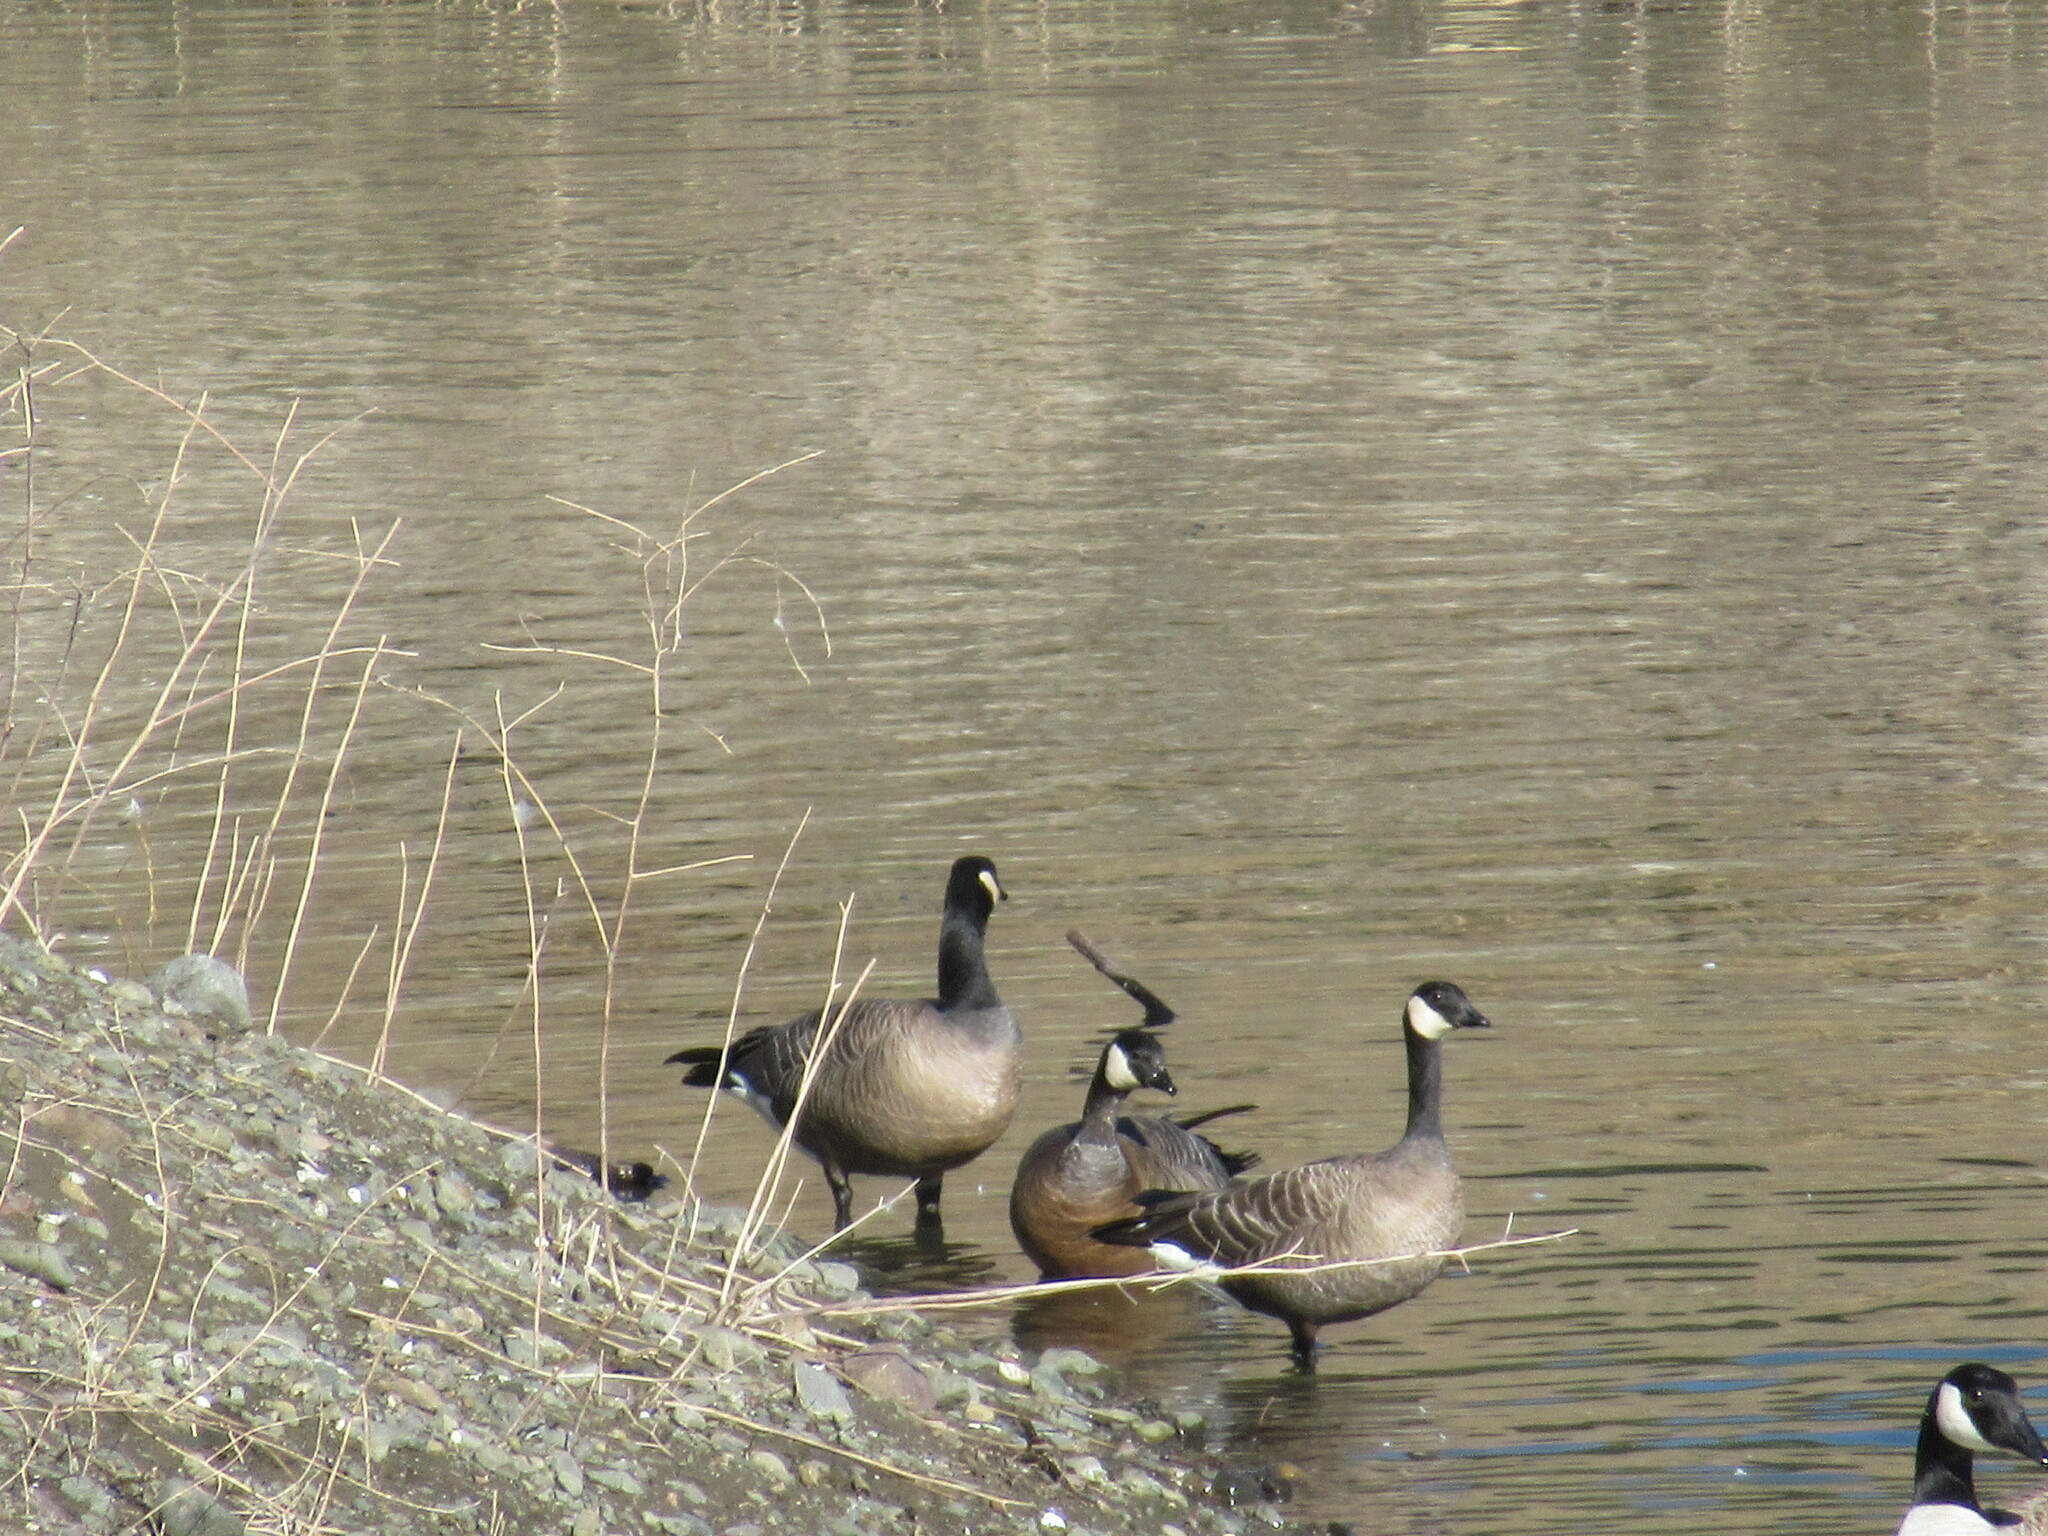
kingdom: Animalia
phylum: Chordata
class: Aves
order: Anseriformes
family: Anatidae
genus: Branta
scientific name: Branta hutchinsii
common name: Cackling goose
